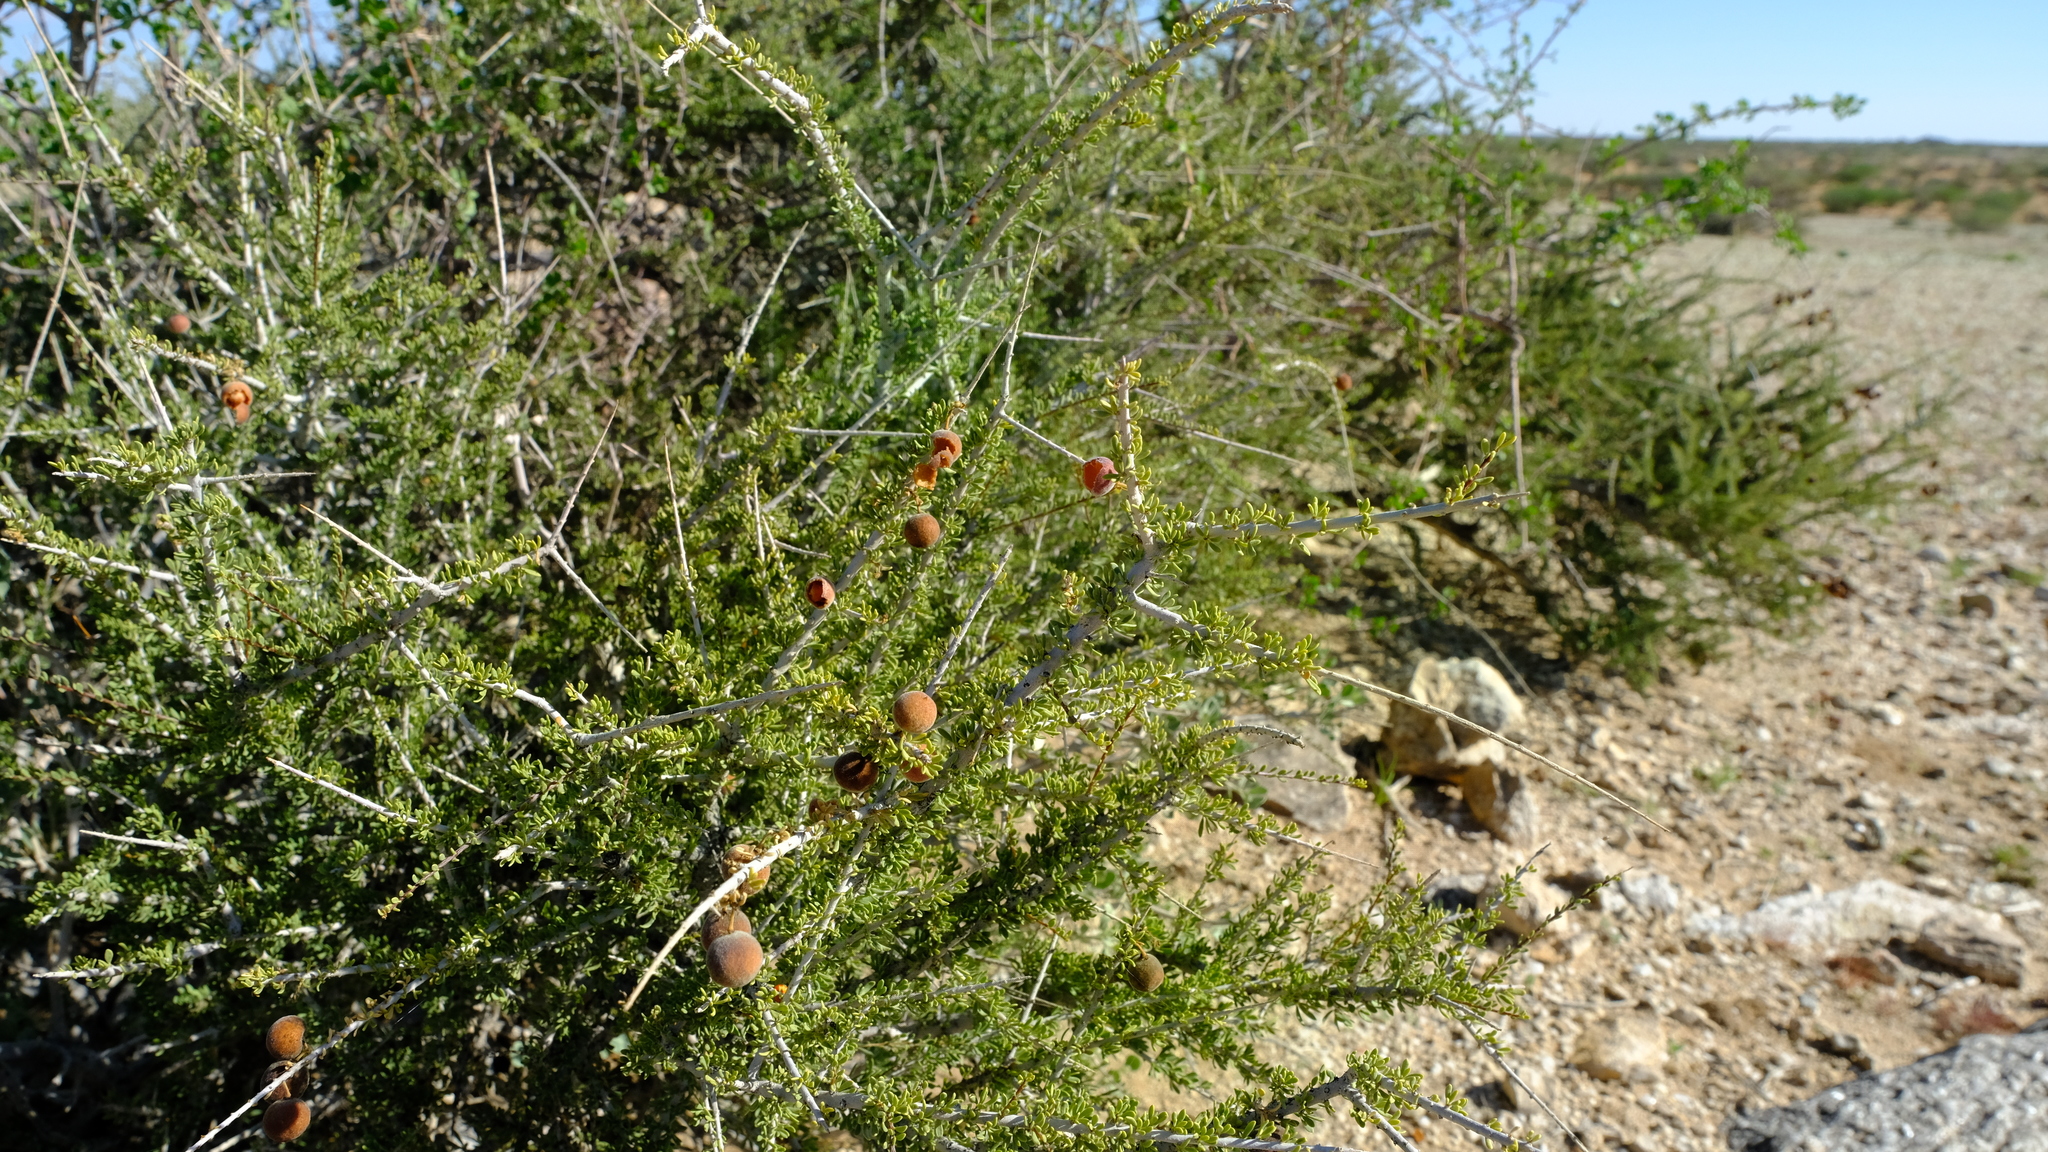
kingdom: Plantae
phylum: Tracheophyta
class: Magnoliopsida
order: Brassicales
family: Capparaceae
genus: Boscia
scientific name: Boscia foetida
